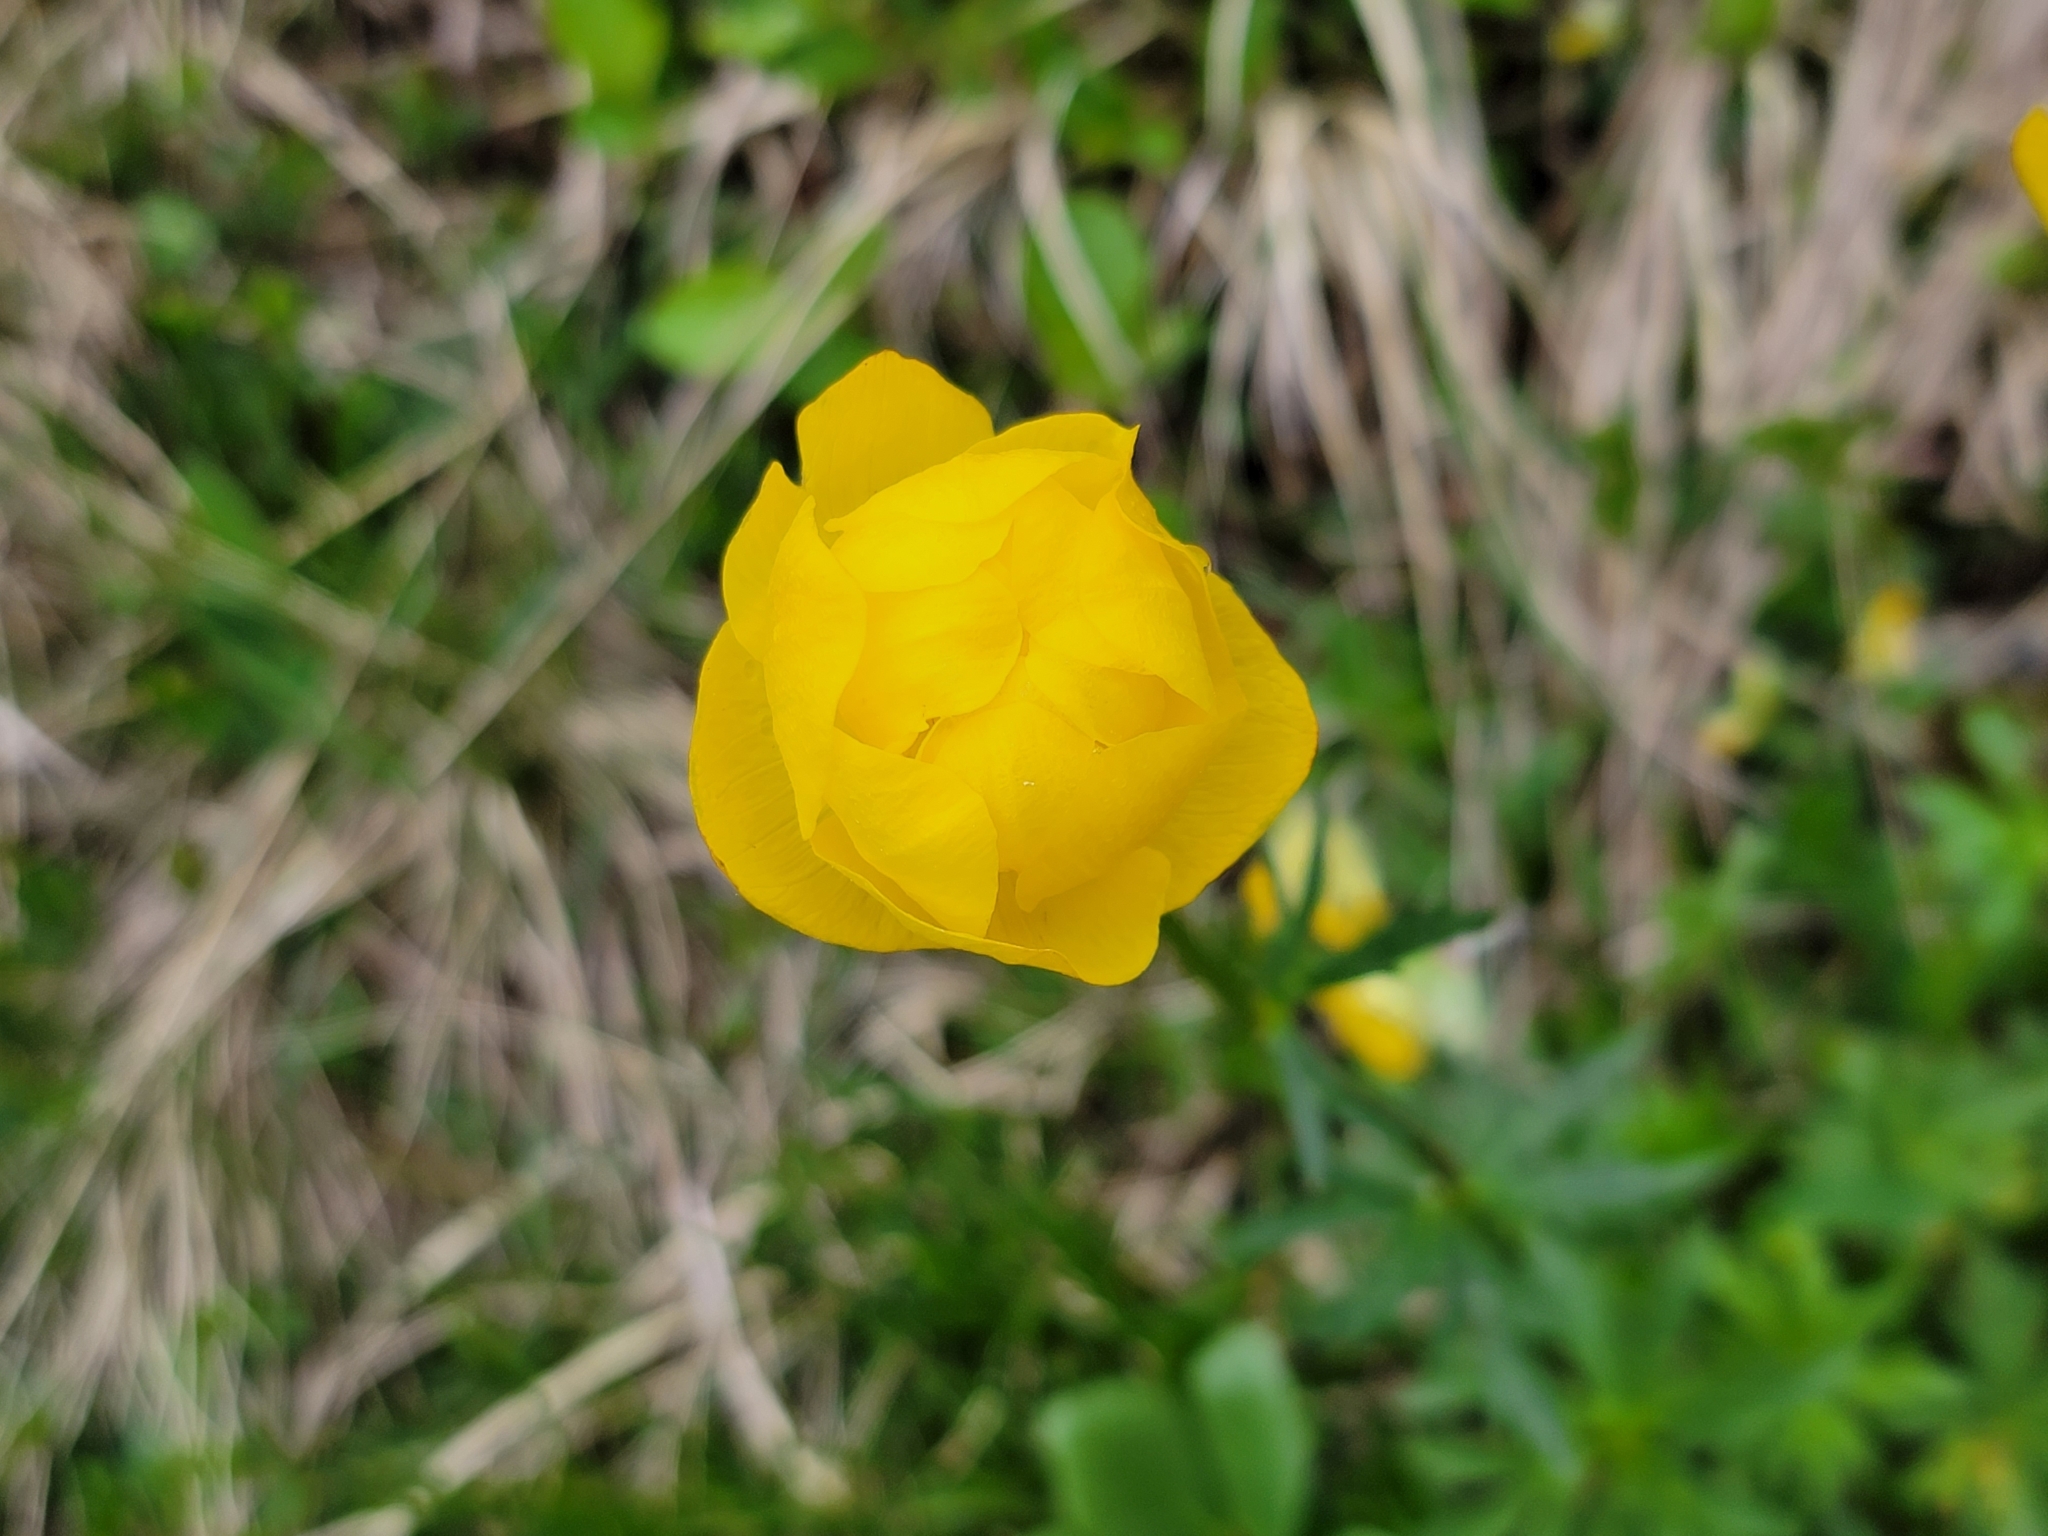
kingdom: Plantae
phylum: Tracheophyta
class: Magnoliopsida
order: Ranunculales
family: Ranunculaceae
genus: Trollius
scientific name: Trollius europaeus
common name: European globeflower
